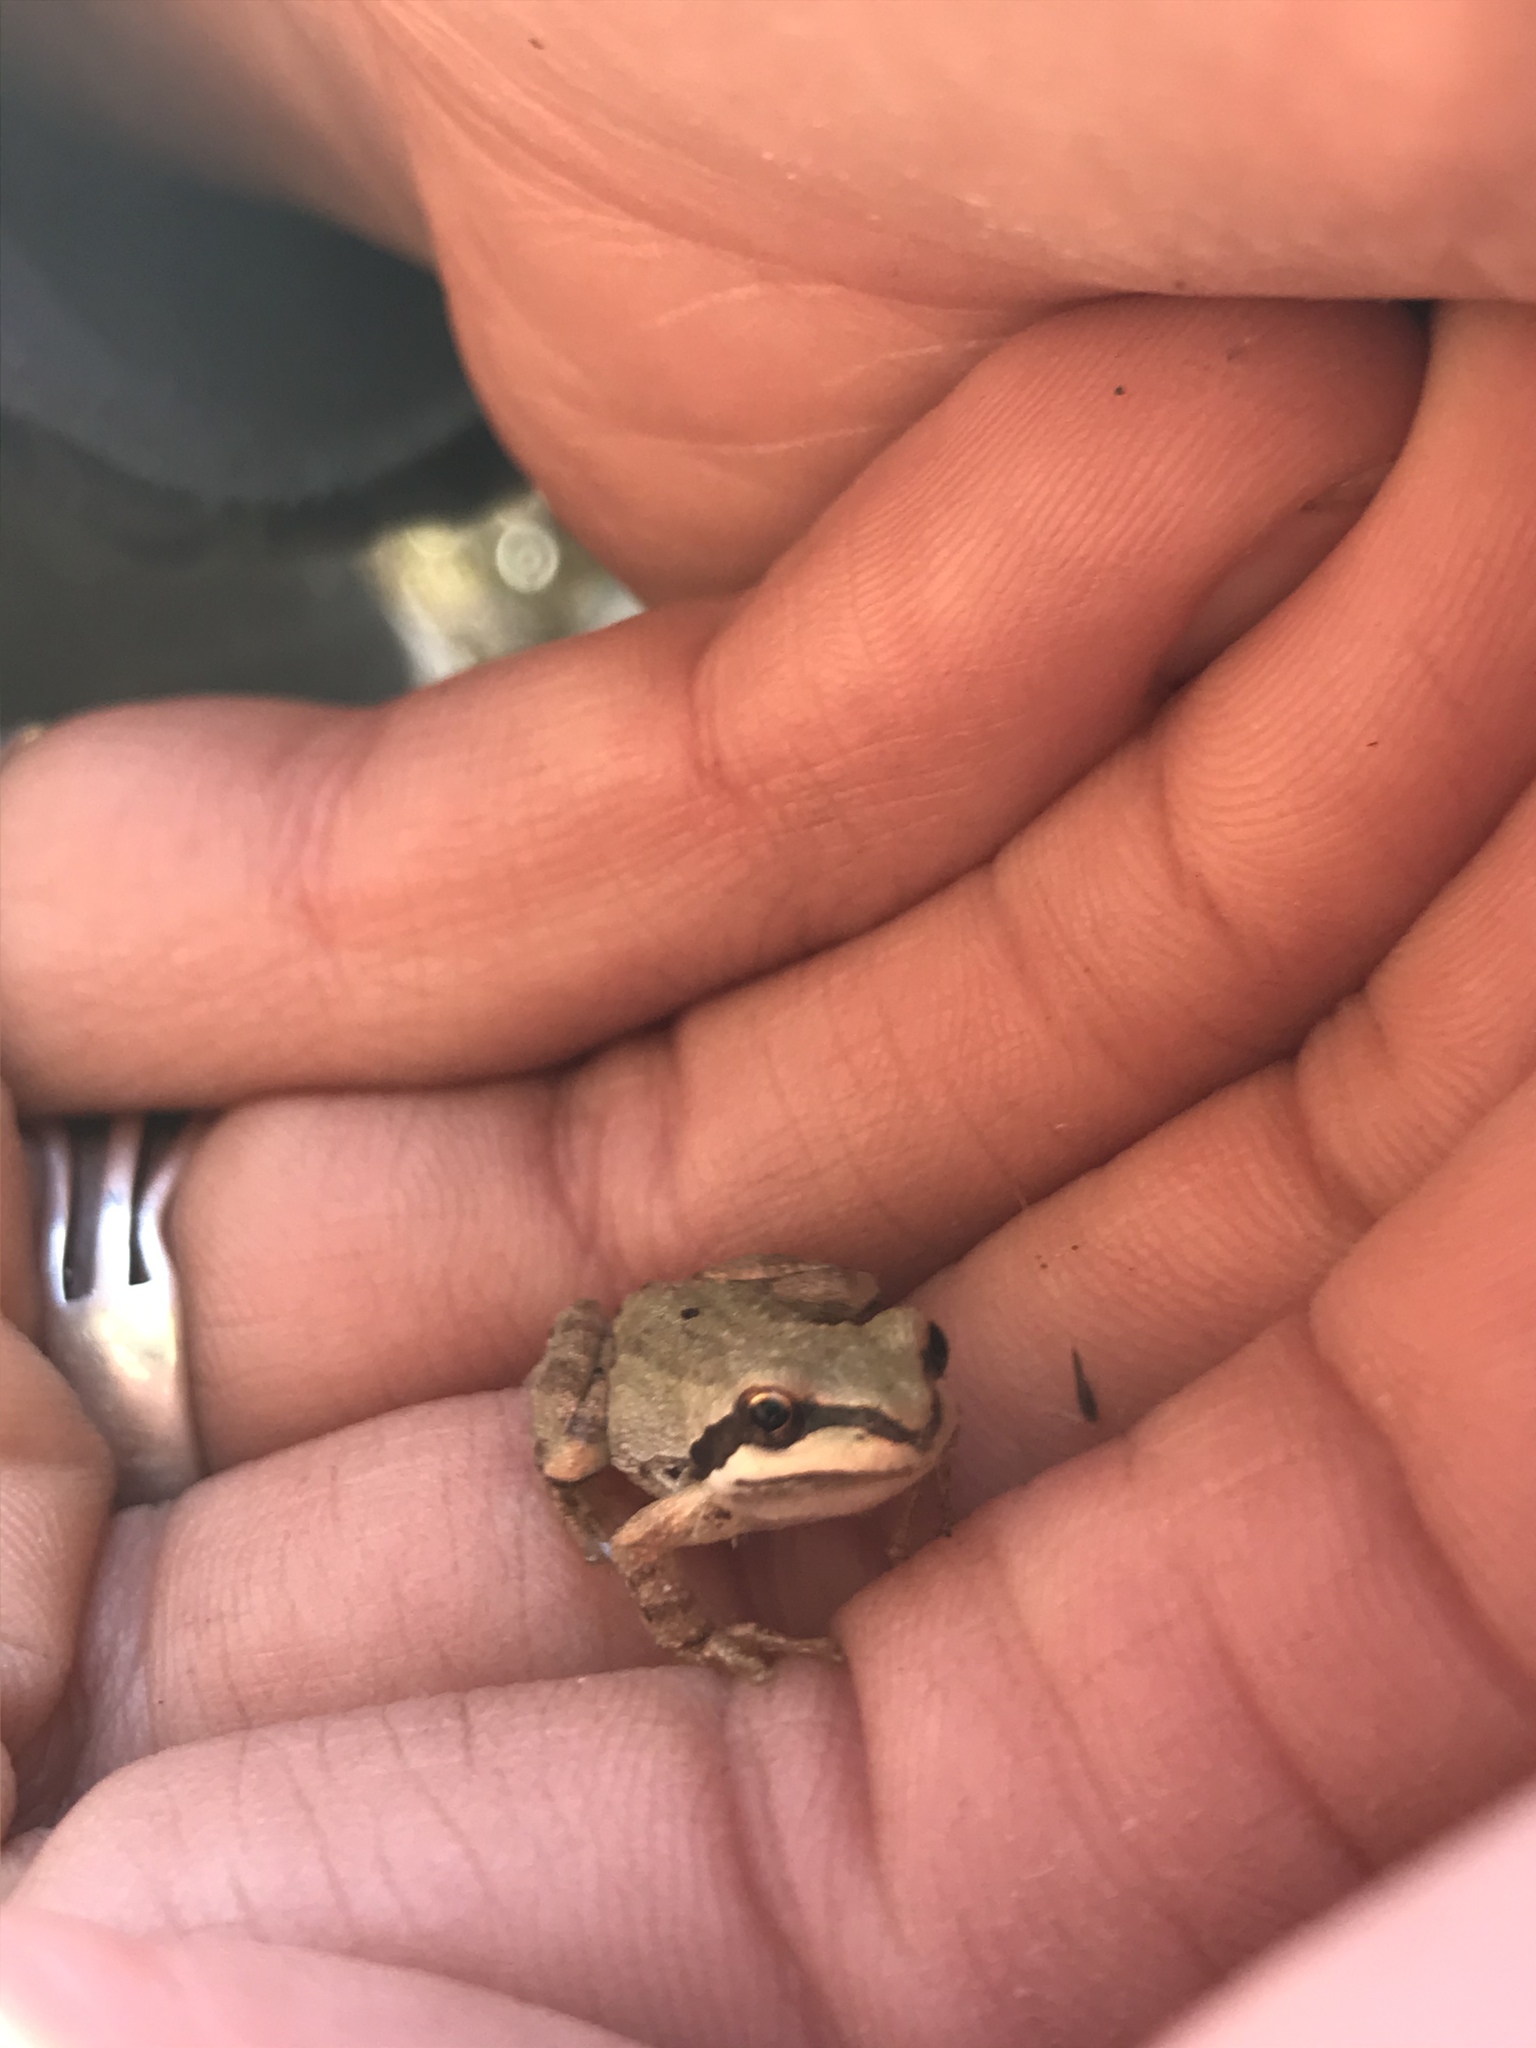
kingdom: Animalia
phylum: Chordata
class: Amphibia
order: Anura
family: Hylidae
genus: Pseudacris
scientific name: Pseudacris regilla
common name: Pacific chorus frog
